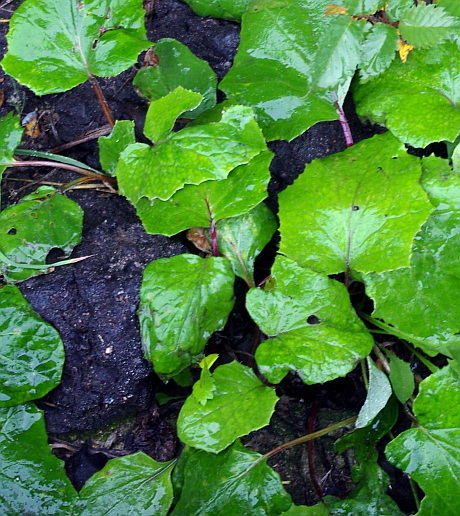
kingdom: Plantae
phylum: Tracheophyta
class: Magnoliopsida
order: Asterales
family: Asteraceae
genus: Tussilago
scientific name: Tussilago farfara
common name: Coltsfoot
